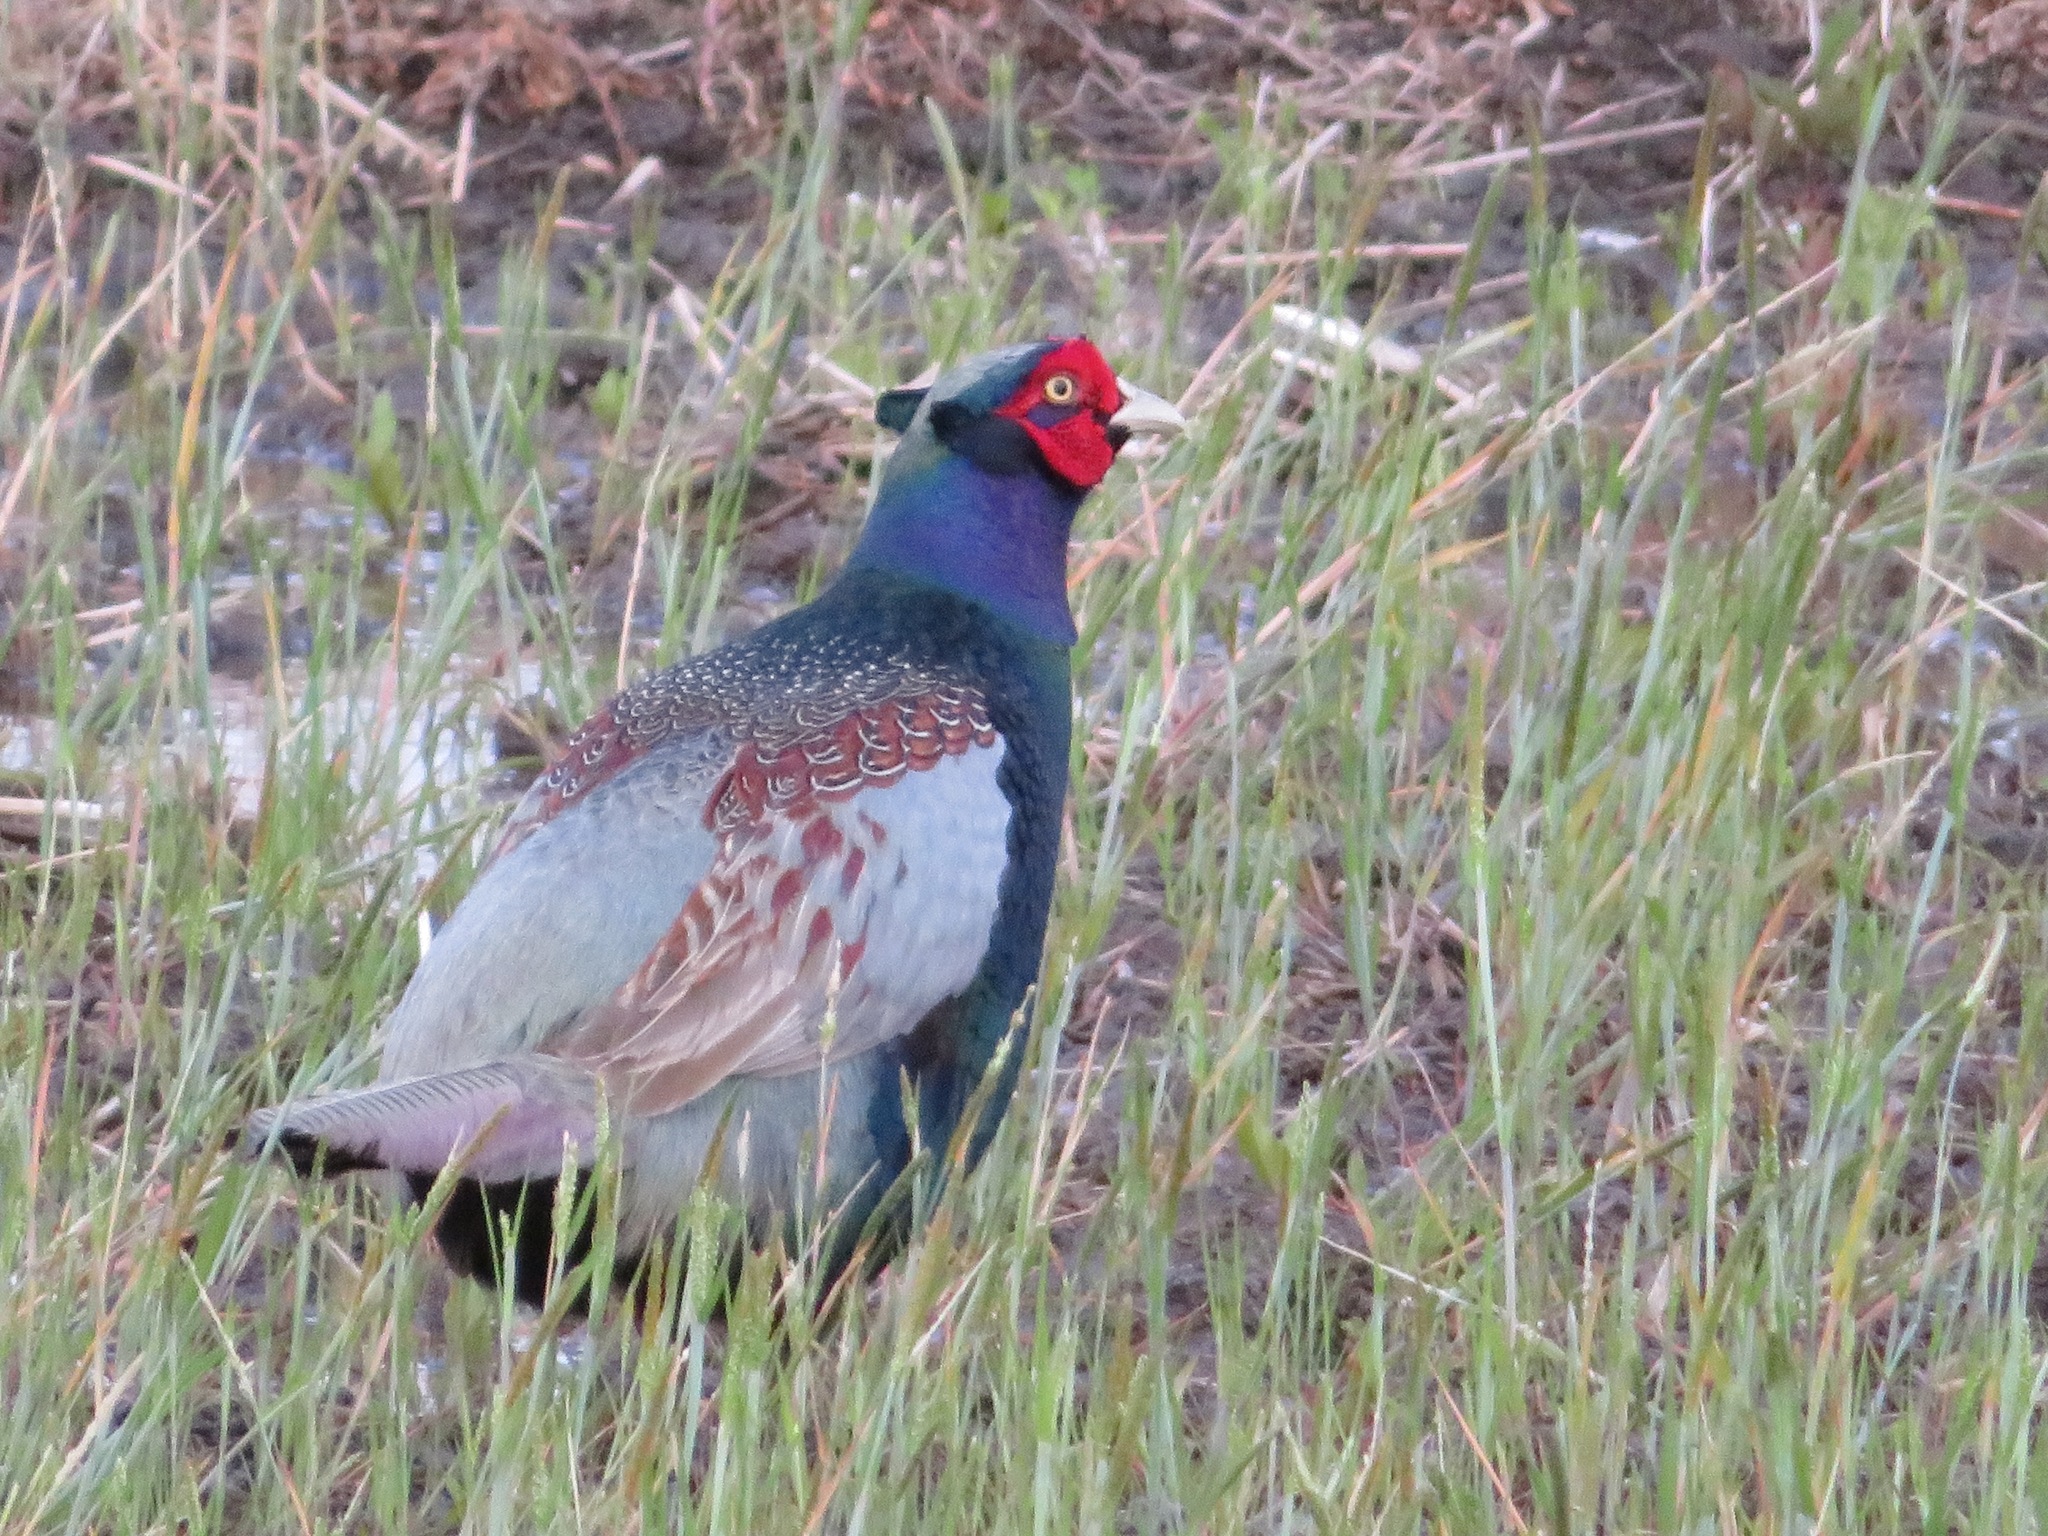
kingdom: Animalia
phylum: Chordata
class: Aves
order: Galliformes
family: Phasianidae
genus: Phasianus
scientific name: Phasianus versicolor
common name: Green pheasant
